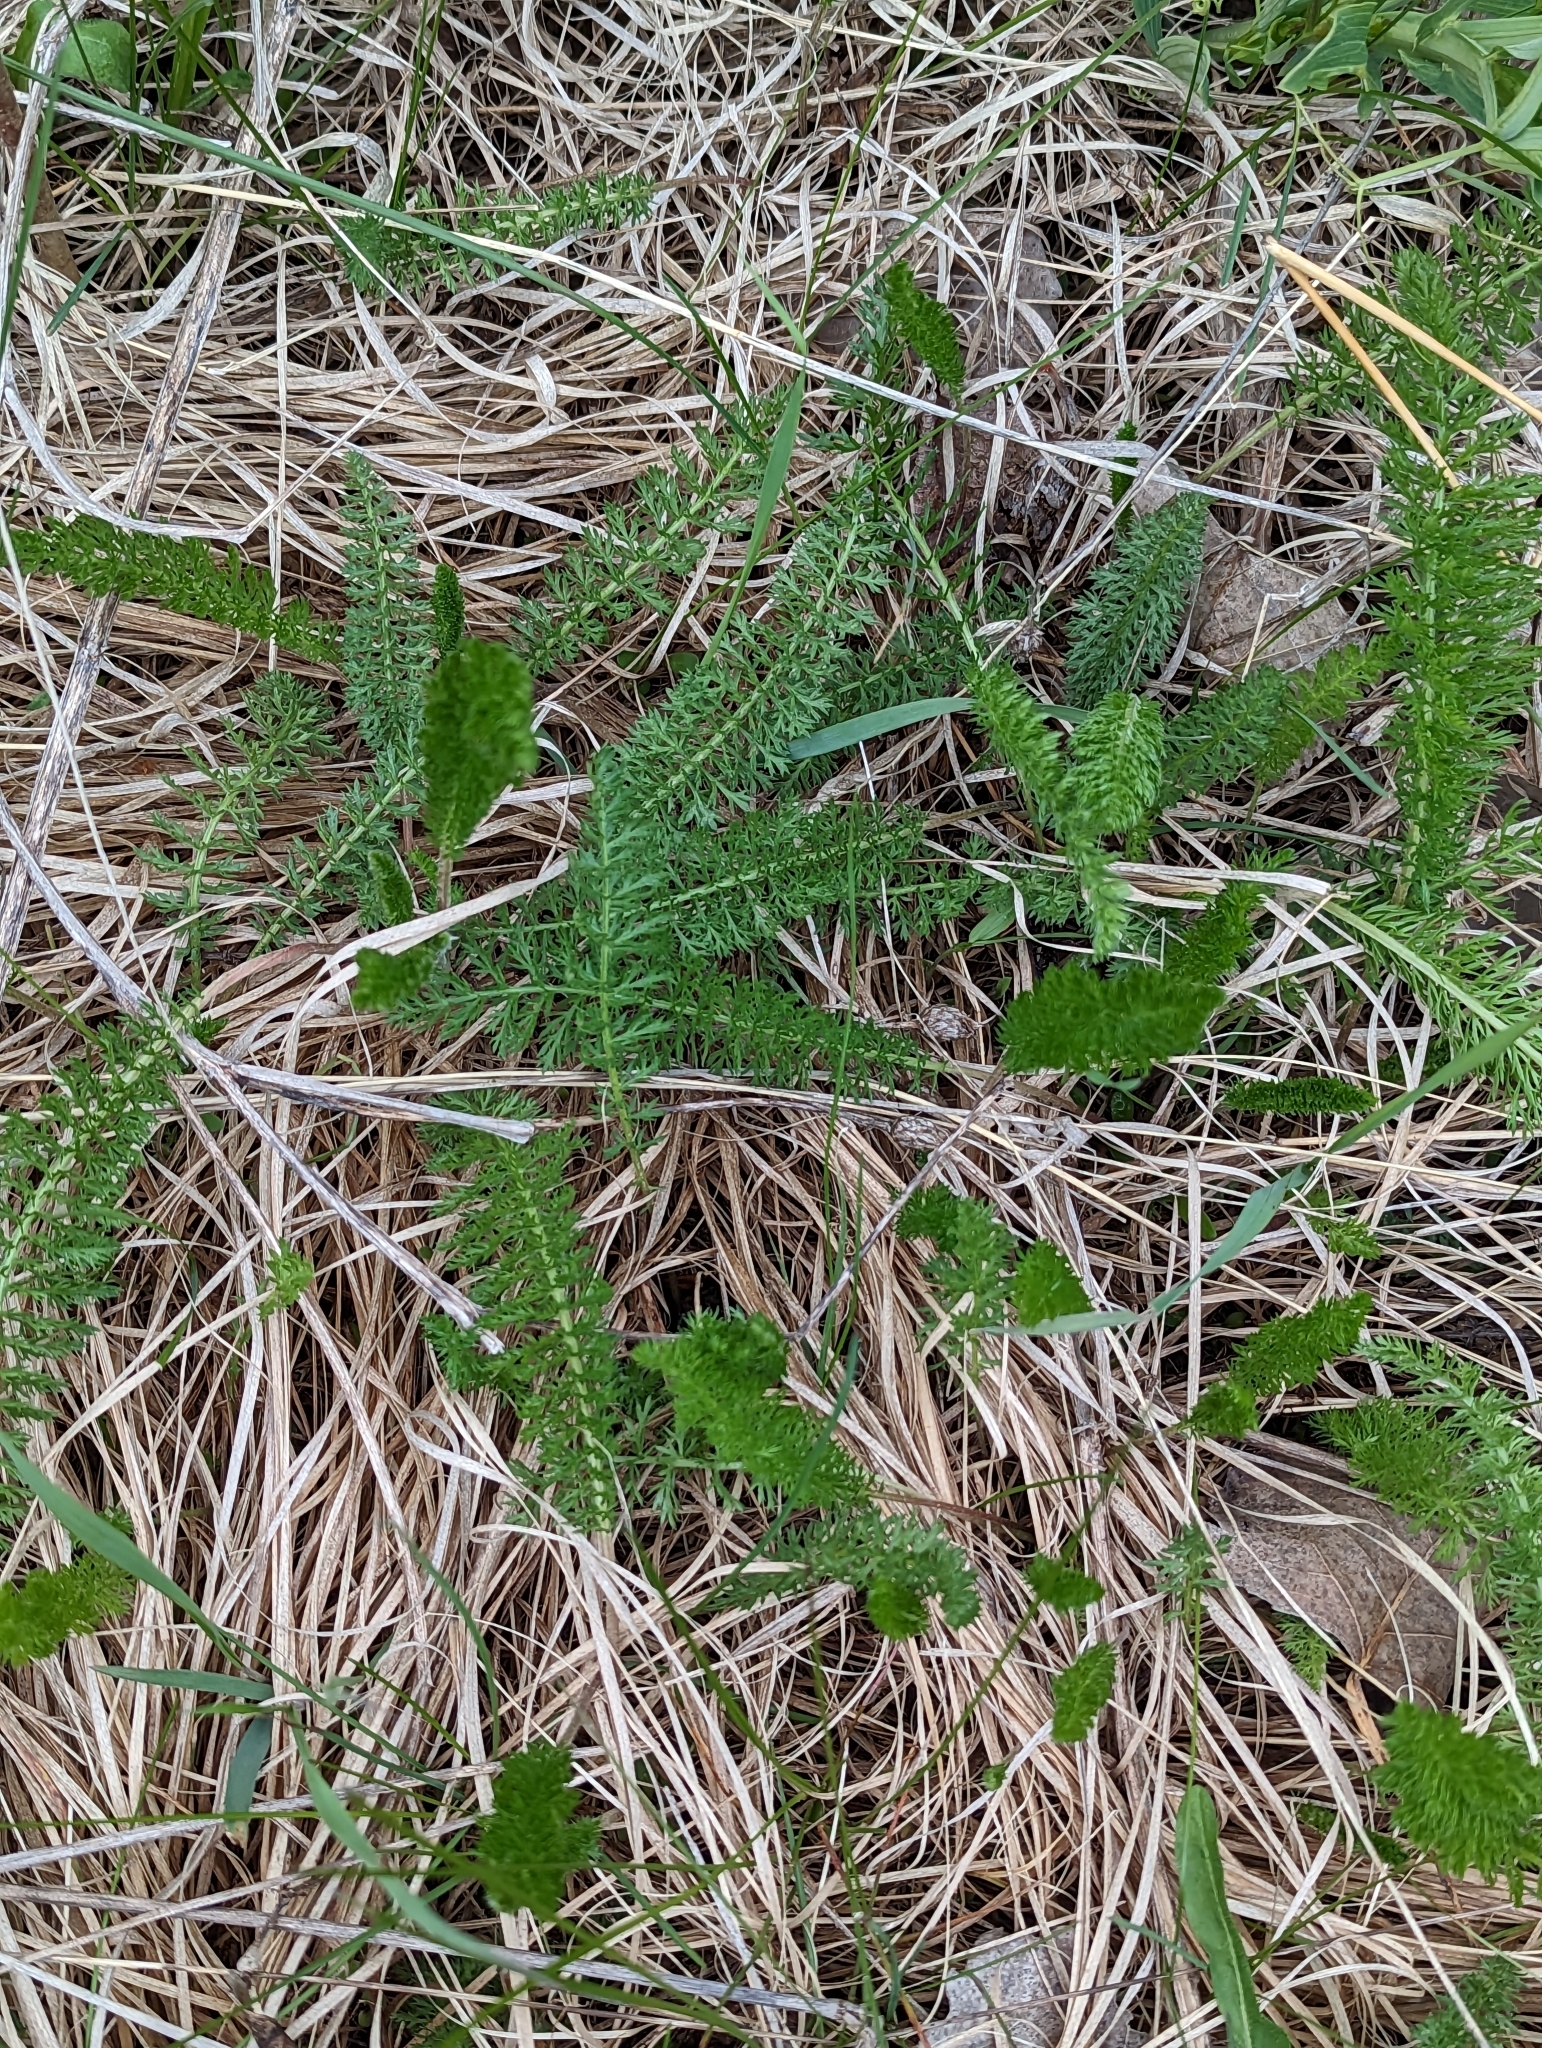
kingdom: Plantae
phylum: Tracheophyta
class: Magnoliopsida
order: Asterales
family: Asteraceae
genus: Achillea
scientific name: Achillea millefolium
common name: Yarrow
